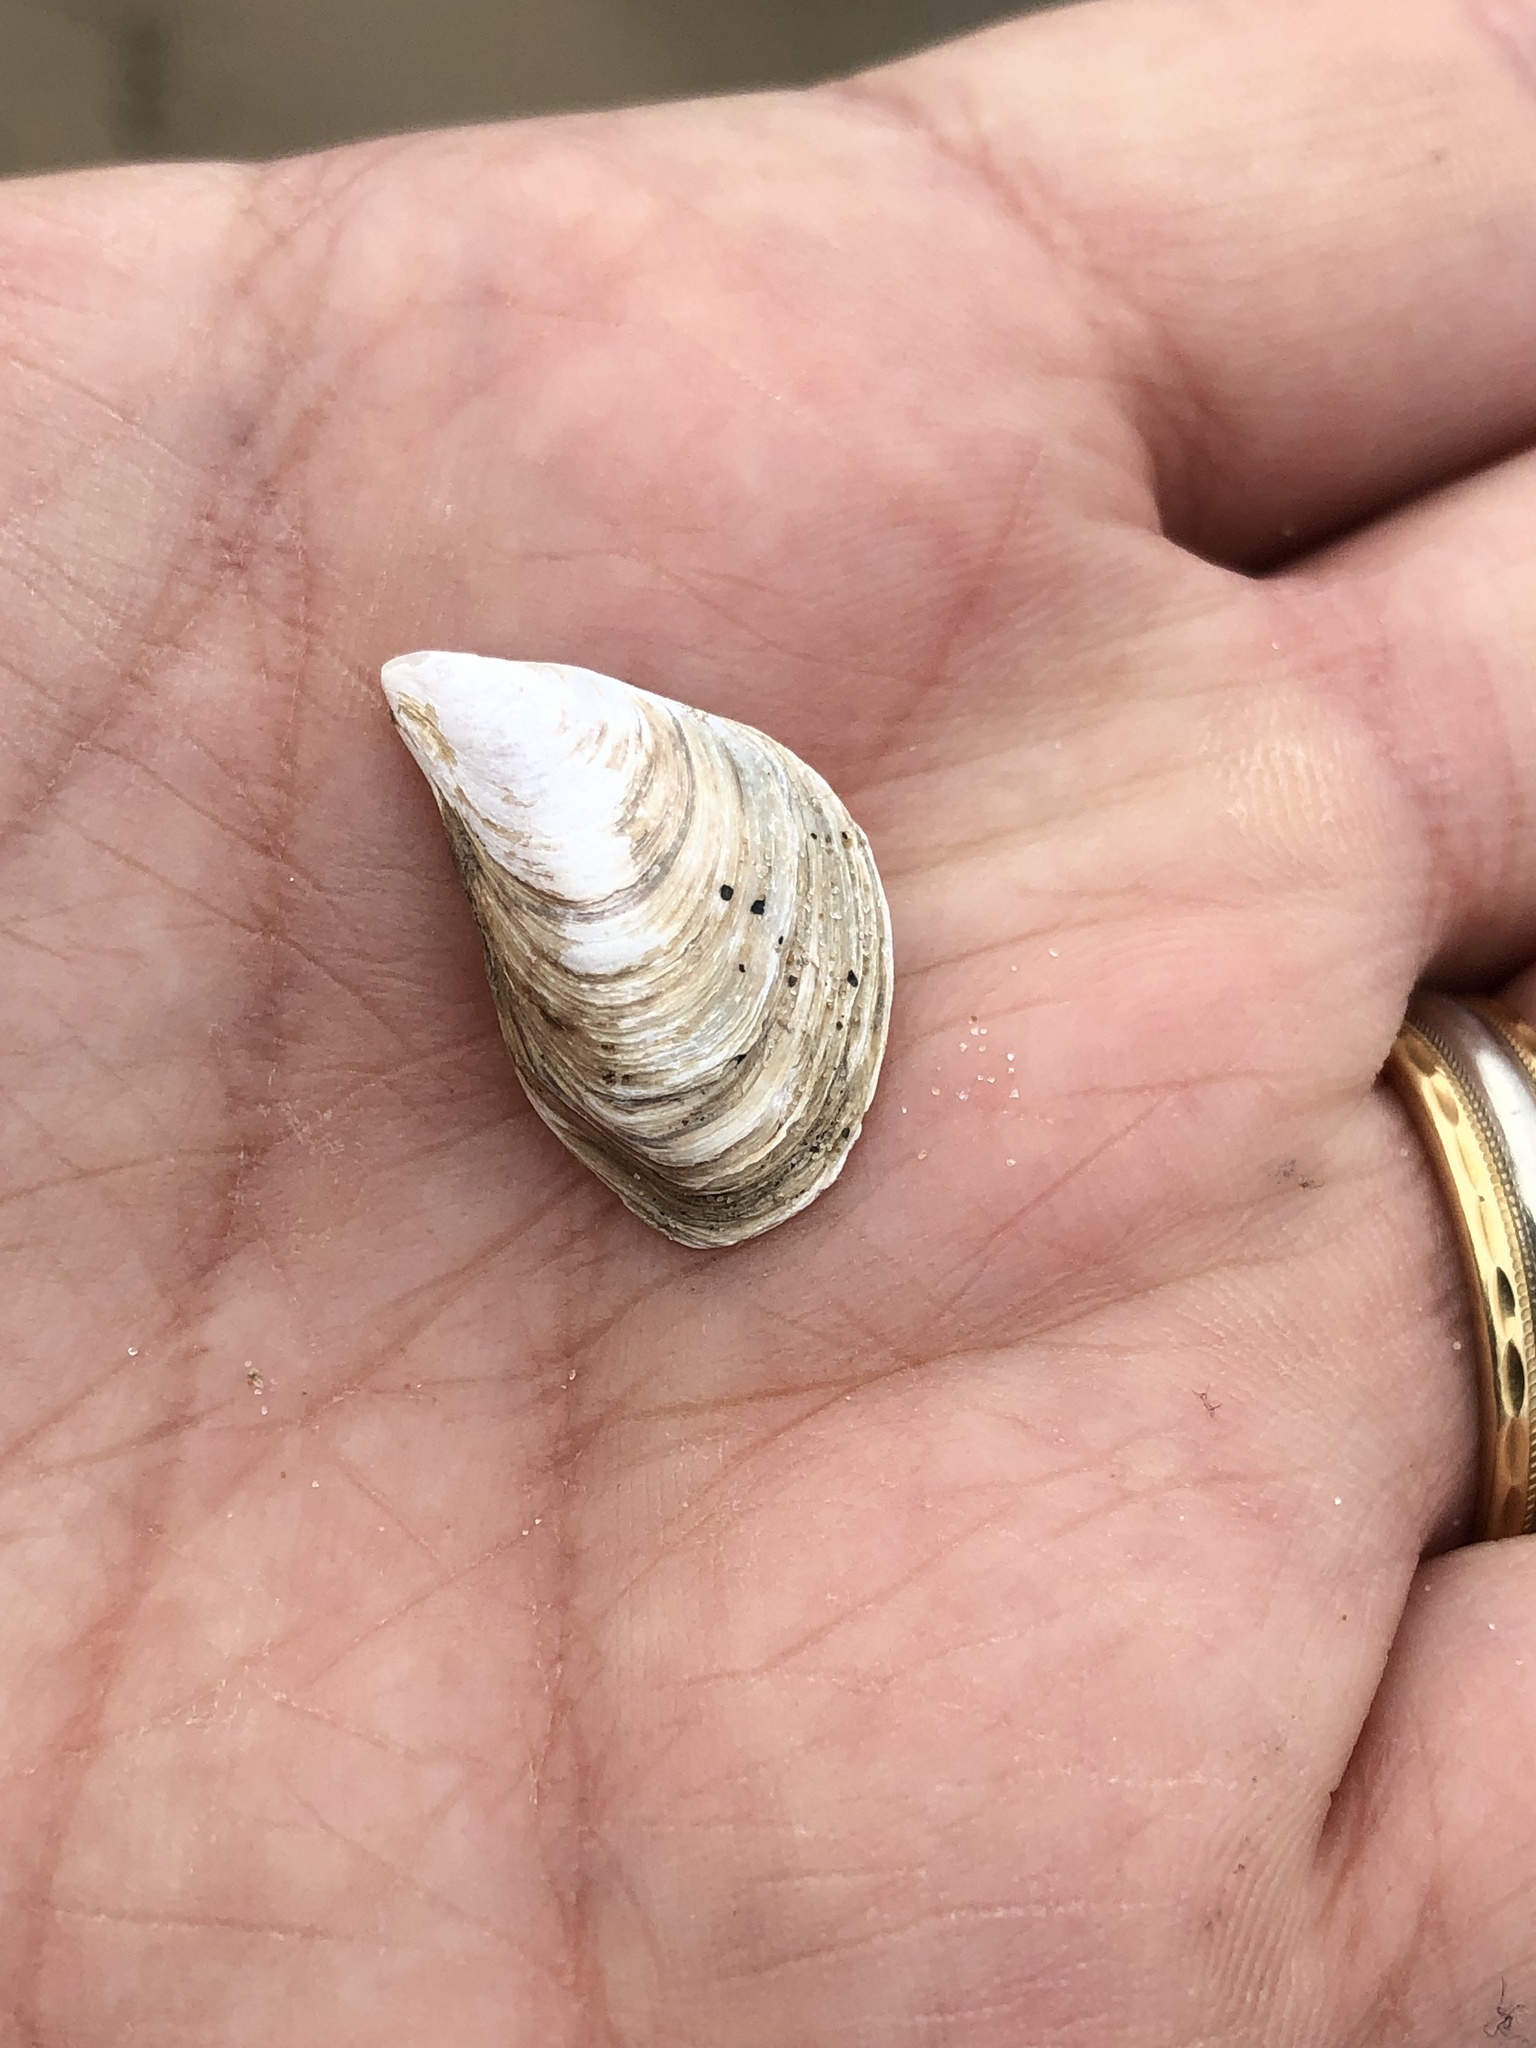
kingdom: Animalia
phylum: Mollusca
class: Bivalvia
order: Myida
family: Dreissenidae
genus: Dreissena
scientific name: Dreissena bugensis
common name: Quagga mussel
